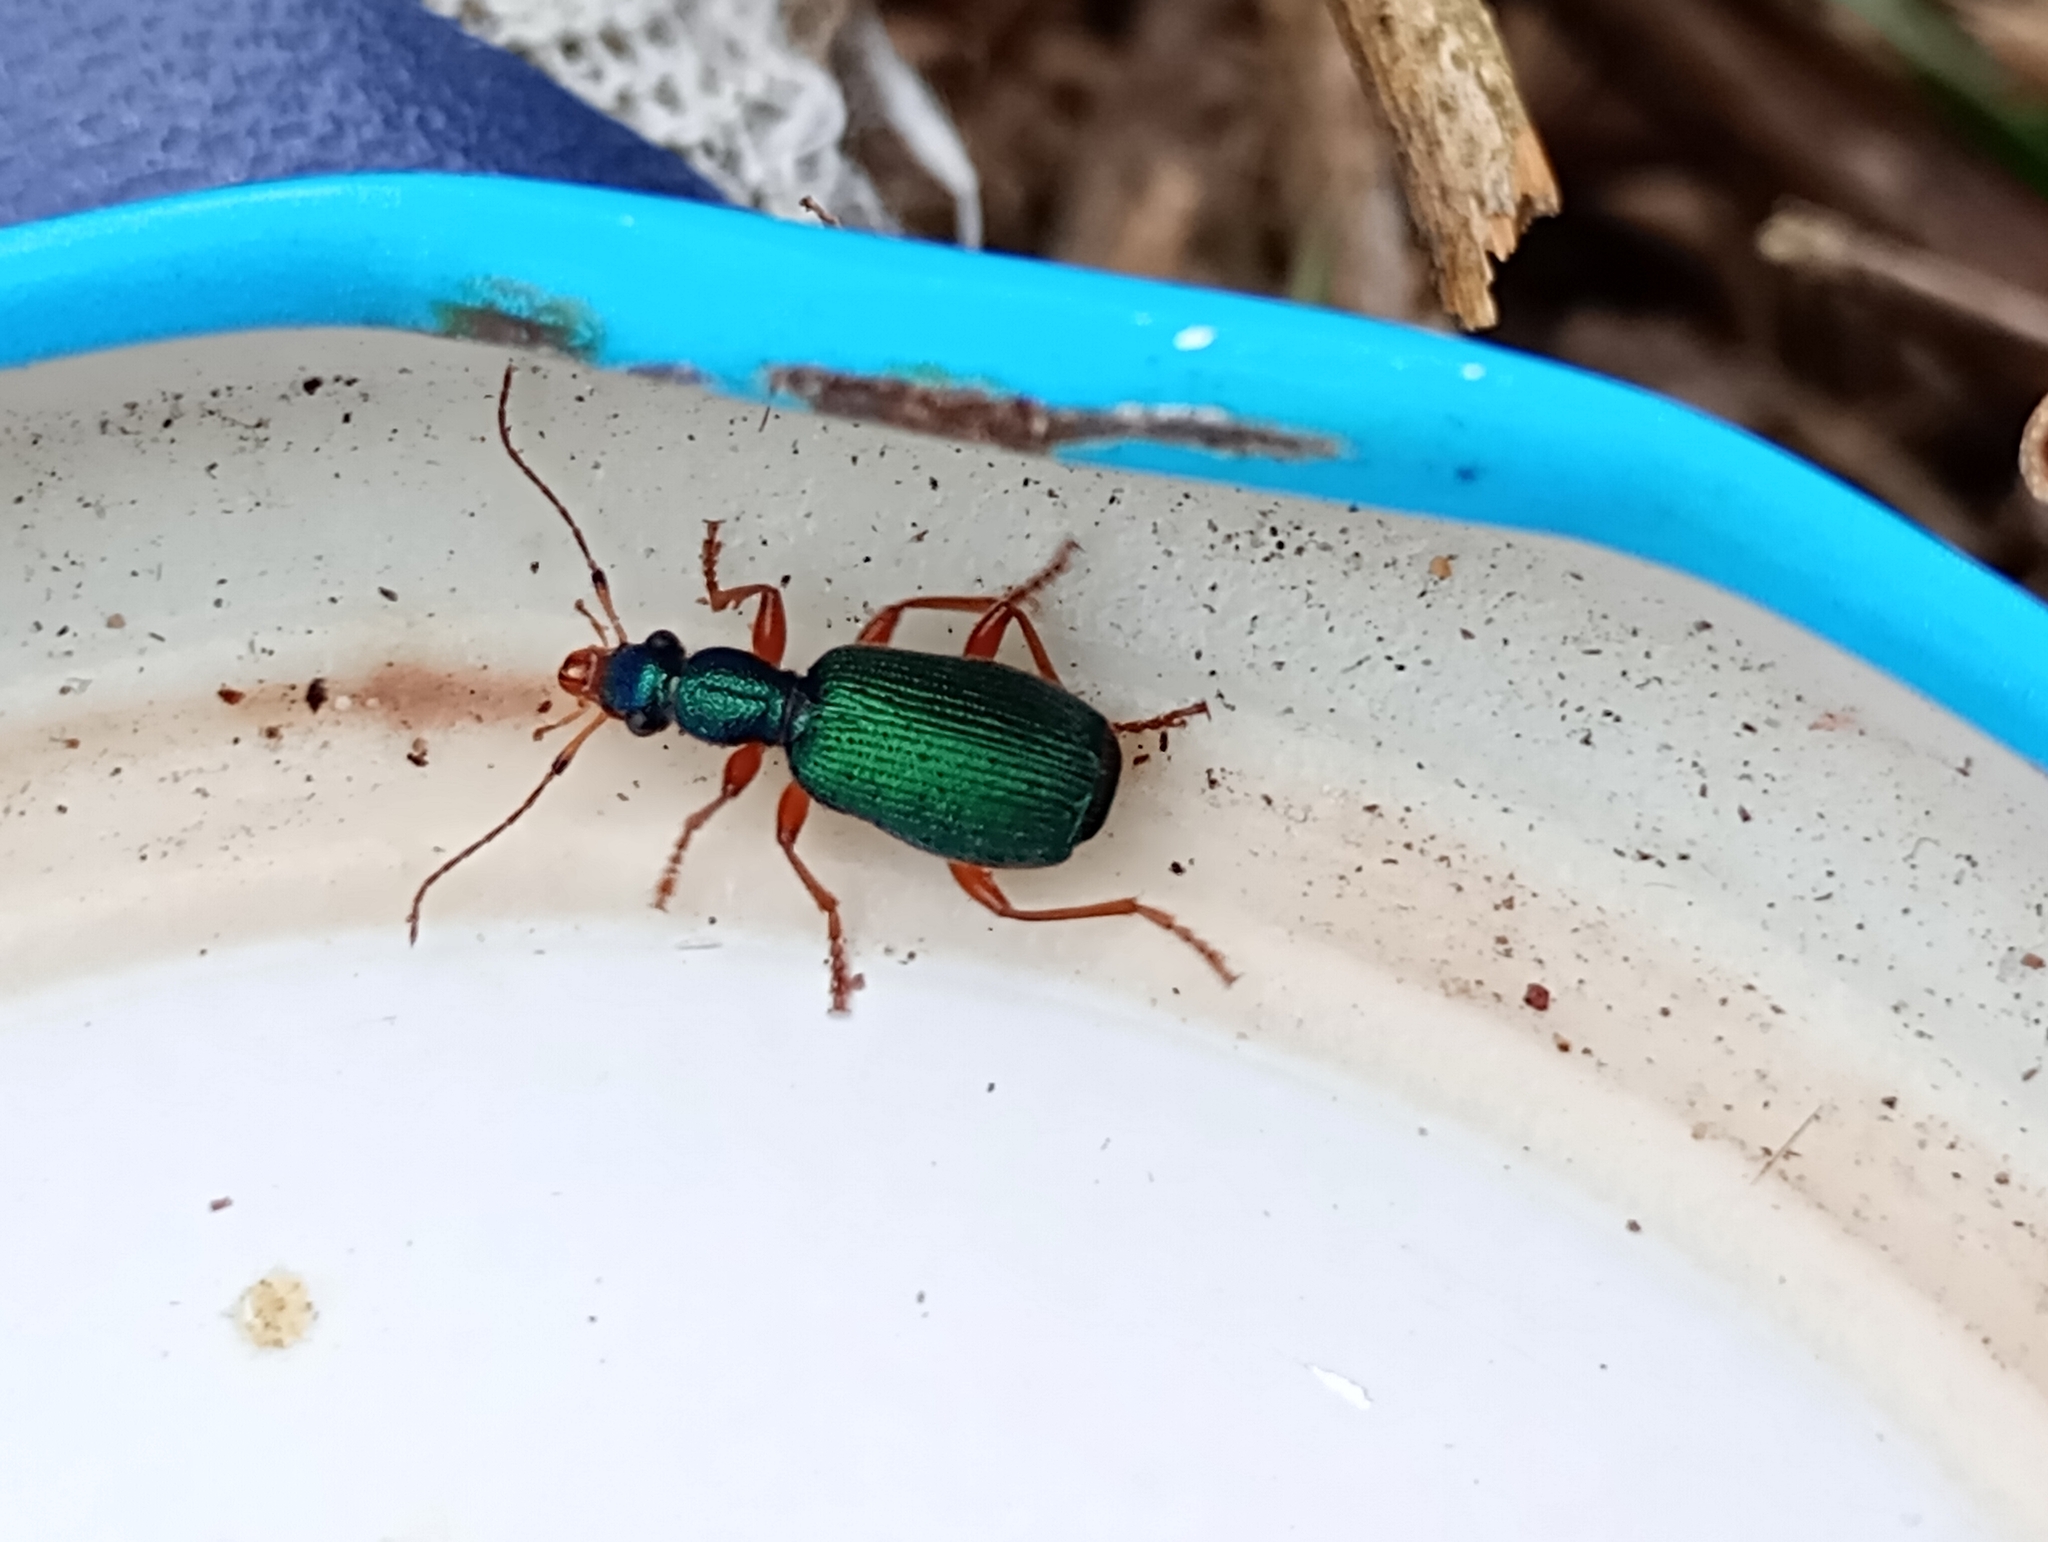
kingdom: Animalia
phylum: Arthropoda
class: Insecta
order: Coleoptera
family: Carabidae
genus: Drypta
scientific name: Drypta dentata
